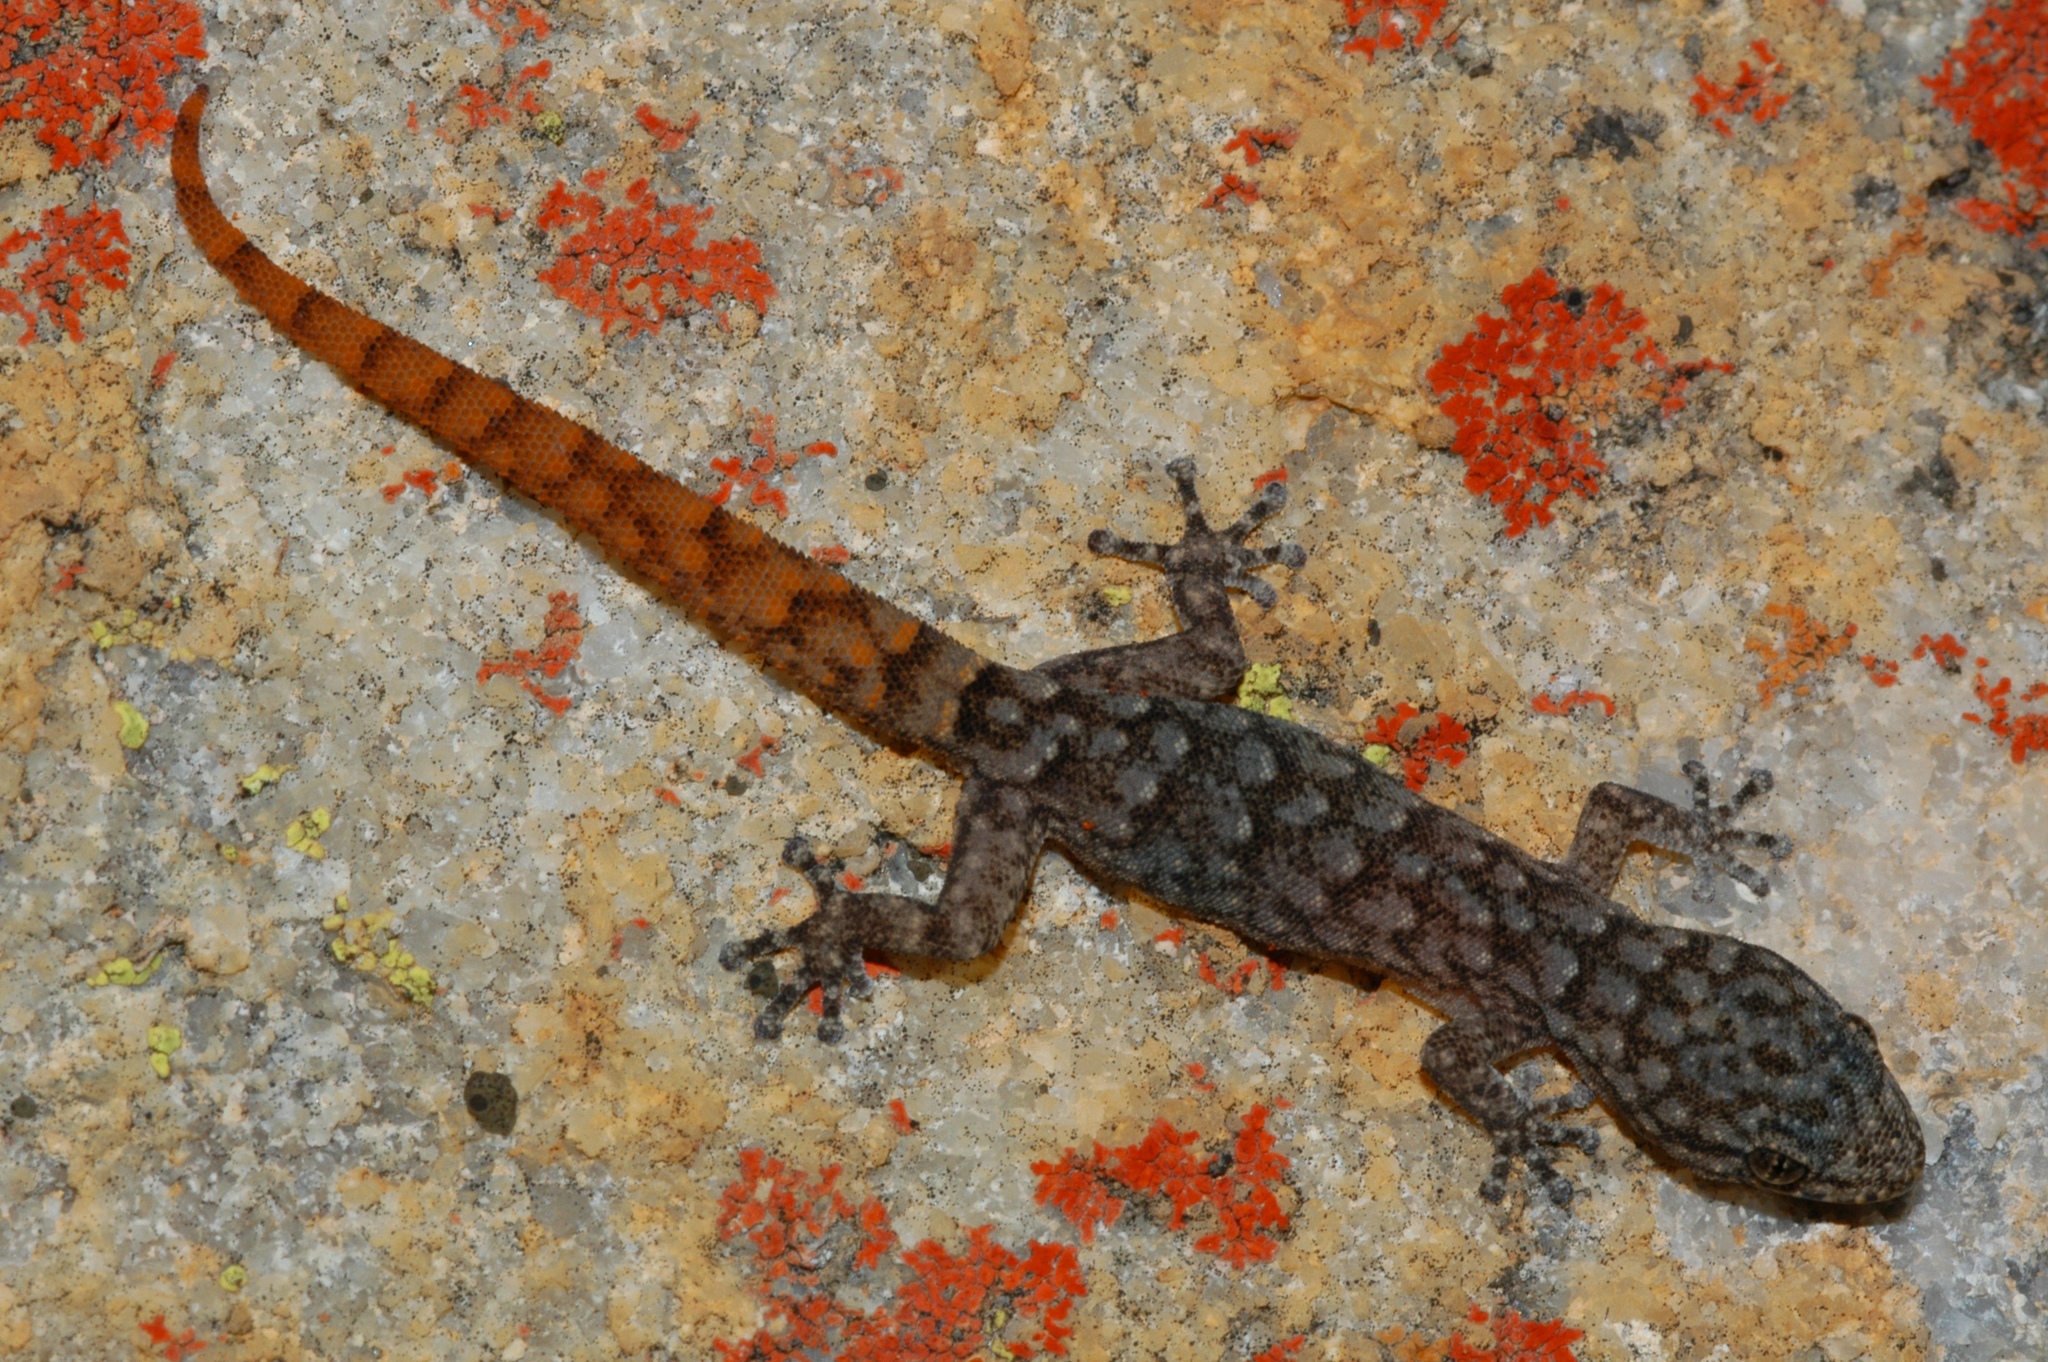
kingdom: Animalia
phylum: Chordata
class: Squamata
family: Gekkonidae
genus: Goggia
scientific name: Goggia hexapora
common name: Cedarberg dwarf leaf-toed gecko
